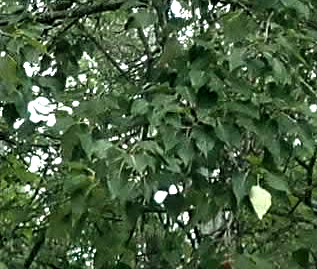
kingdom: Plantae
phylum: Tracheophyta
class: Magnoliopsida
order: Malpighiales
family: Salicaceae
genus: Populus
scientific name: Populus balsamifera
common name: Balsam poplar
